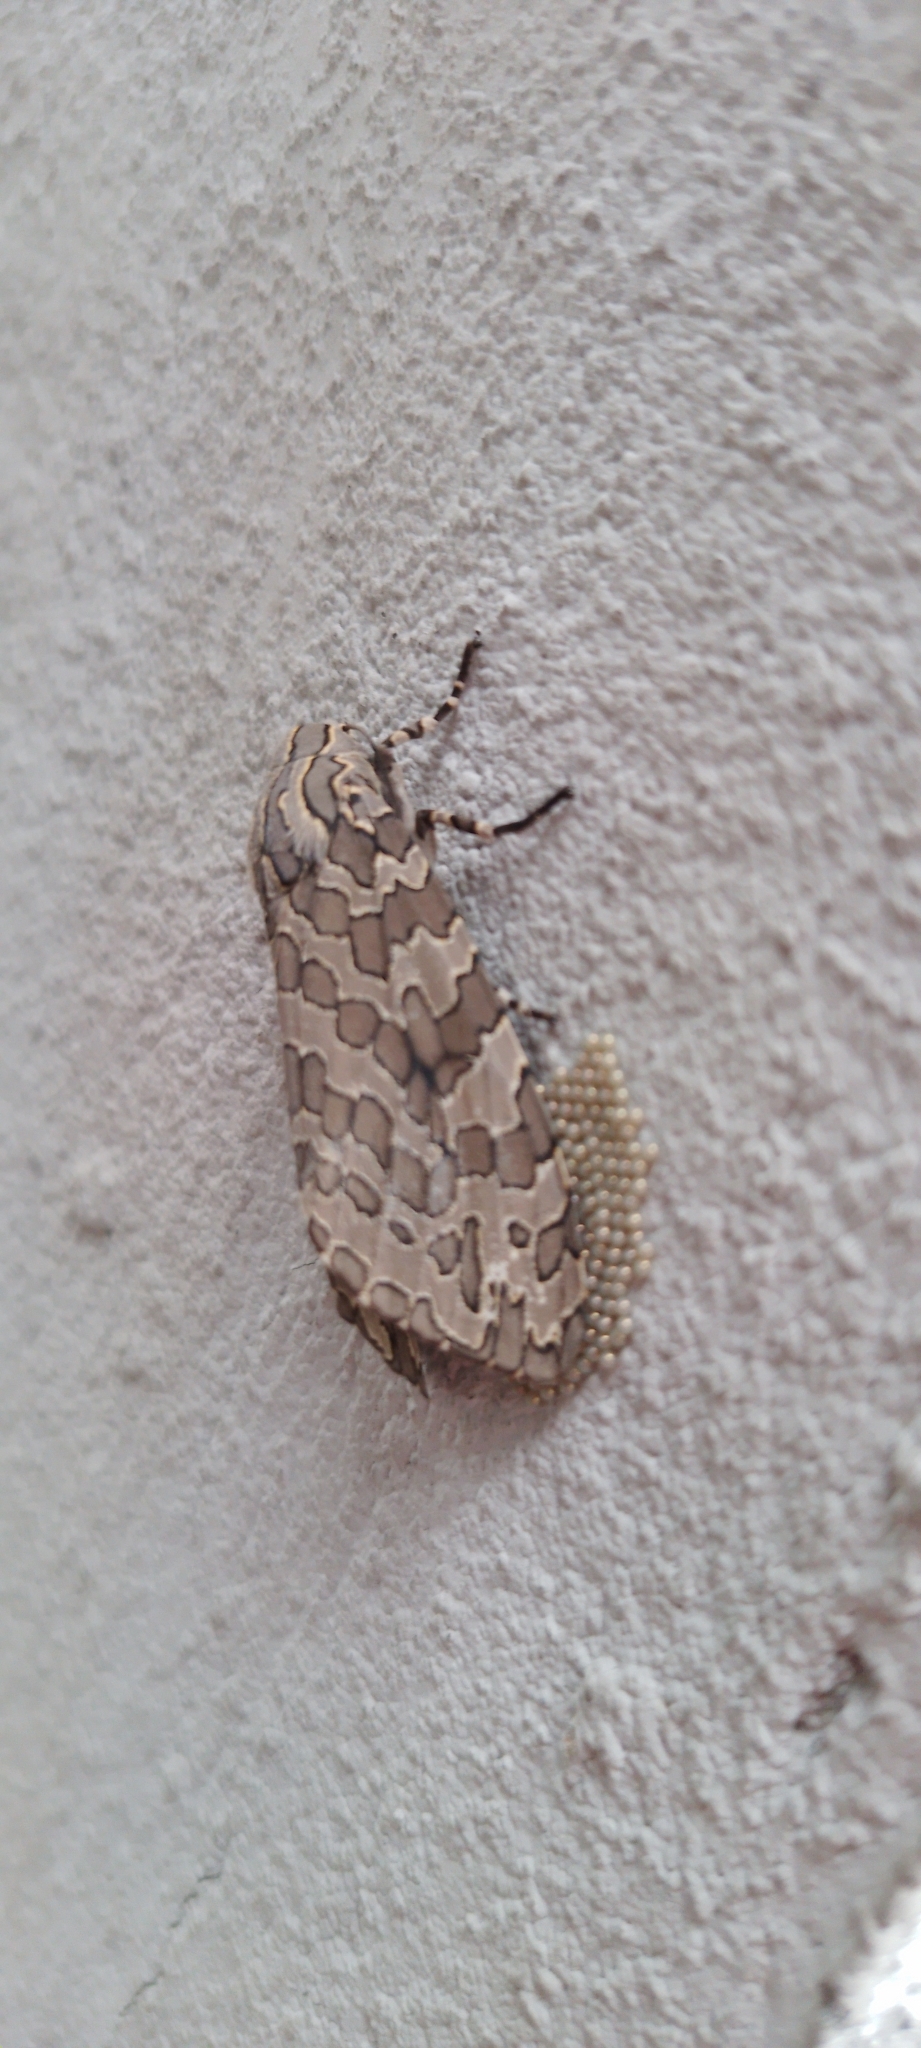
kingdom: Animalia
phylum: Arthropoda
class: Insecta
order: Lepidoptera
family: Erebidae
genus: Hypercompe
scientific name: Hypercompe indecisa
